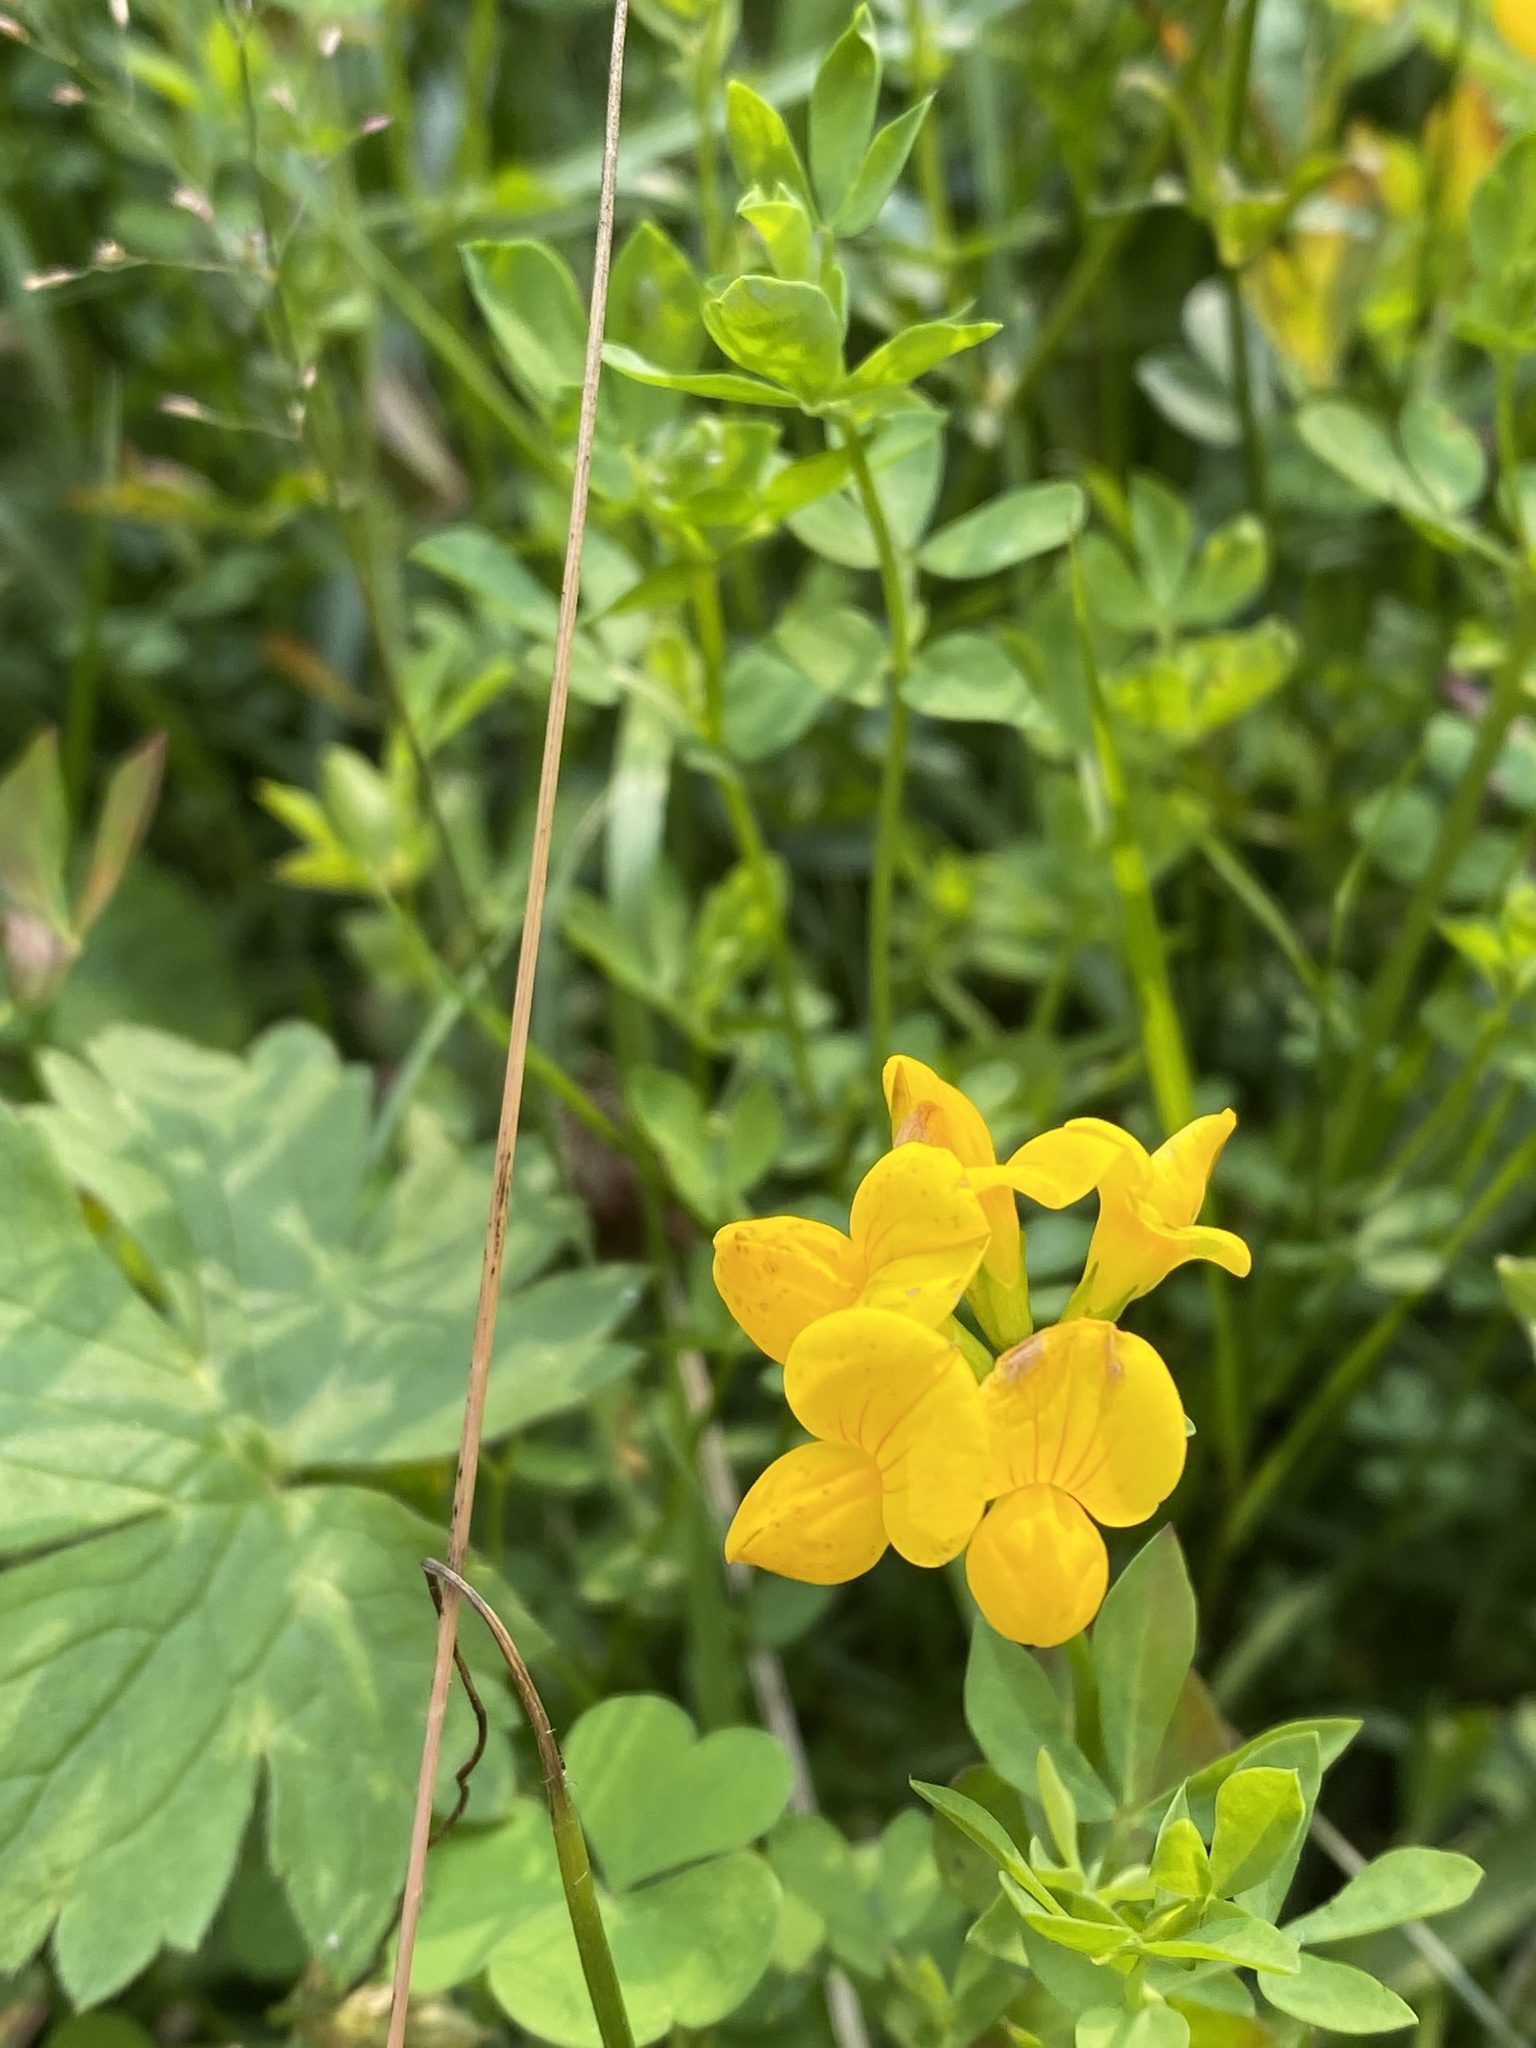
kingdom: Plantae
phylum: Tracheophyta
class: Magnoliopsida
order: Fabales
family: Fabaceae
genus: Lotus
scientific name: Lotus corniculatus
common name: Common bird's-foot-trefoil
